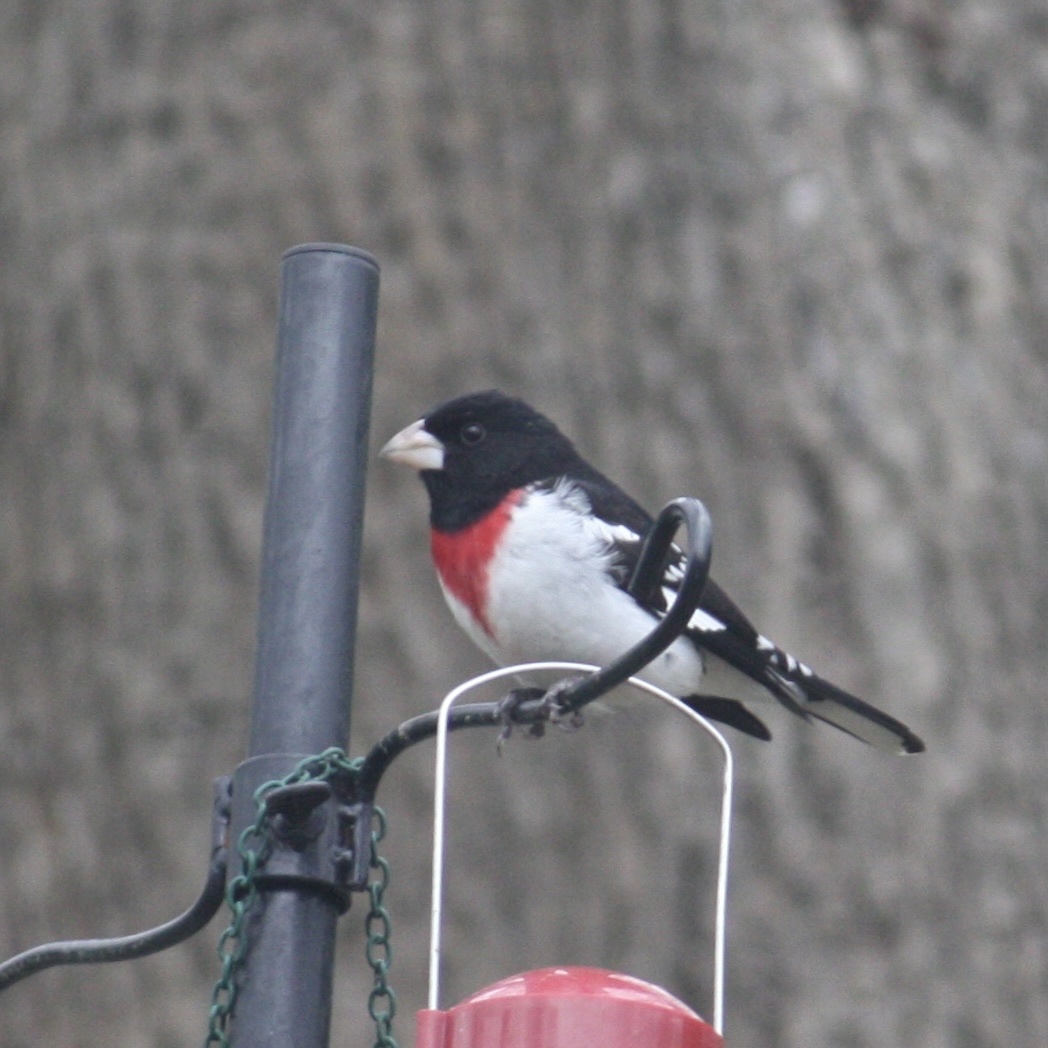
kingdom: Animalia
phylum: Chordata
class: Aves
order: Passeriformes
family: Cardinalidae
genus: Pheucticus
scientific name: Pheucticus ludovicianus
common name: Rose-breasted grosbeak
